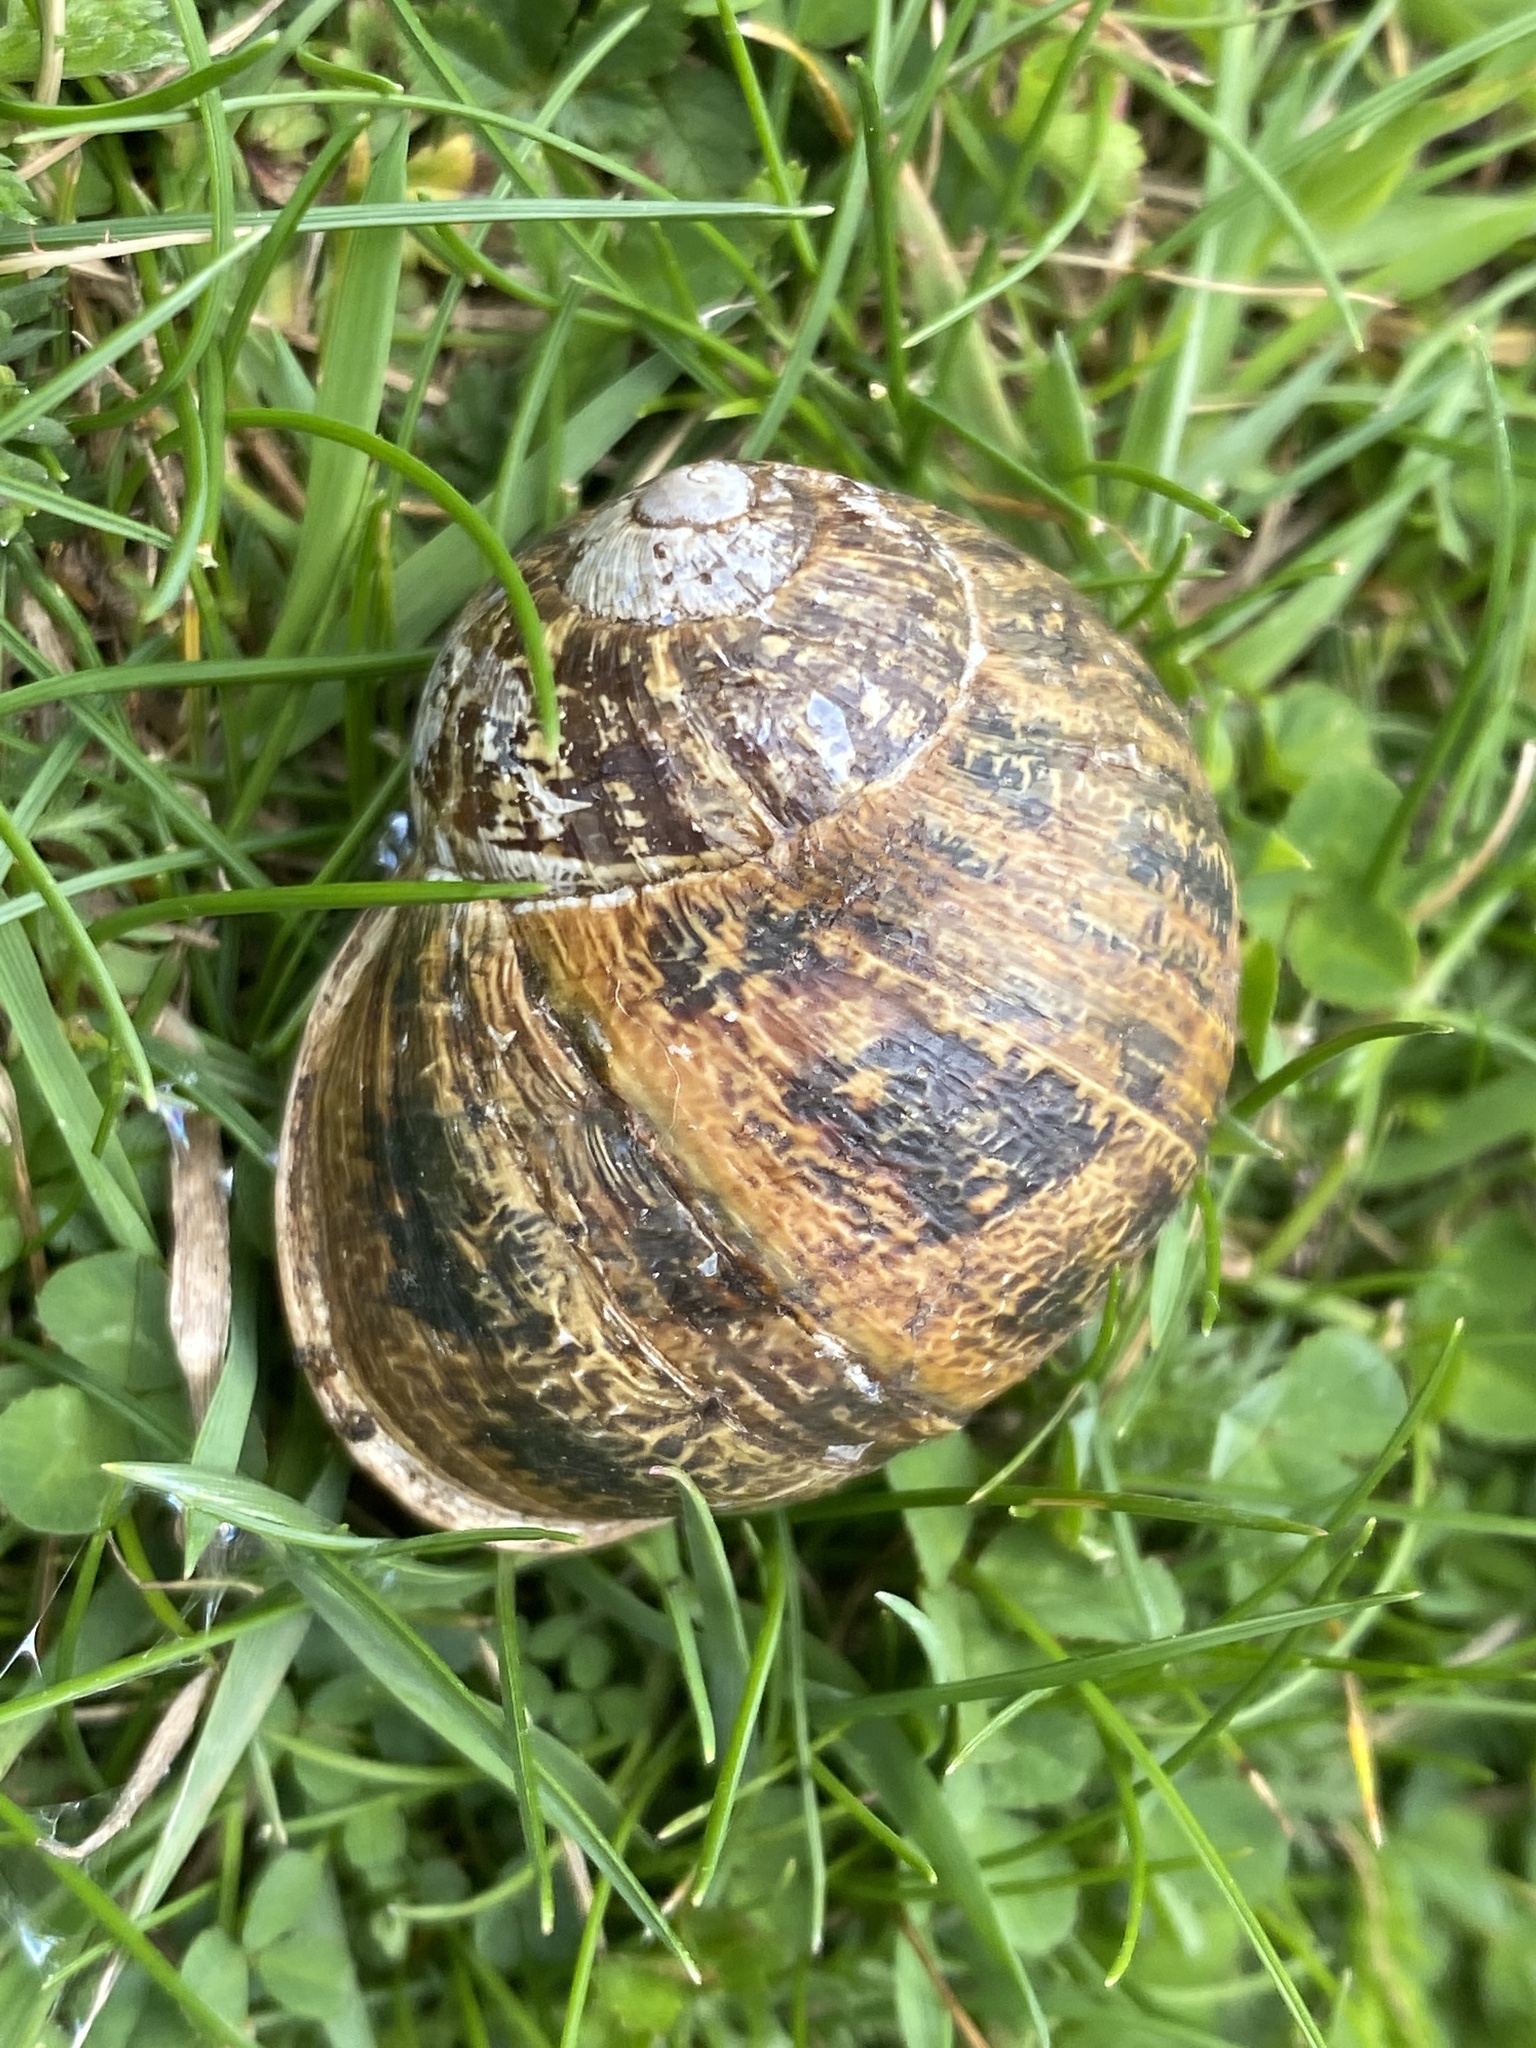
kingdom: Animalia
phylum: Mollusca
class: Gastropoda
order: Stylommatophora
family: Helicidae
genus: Cornu
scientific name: Cornu aspersum
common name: Brown garden snail
